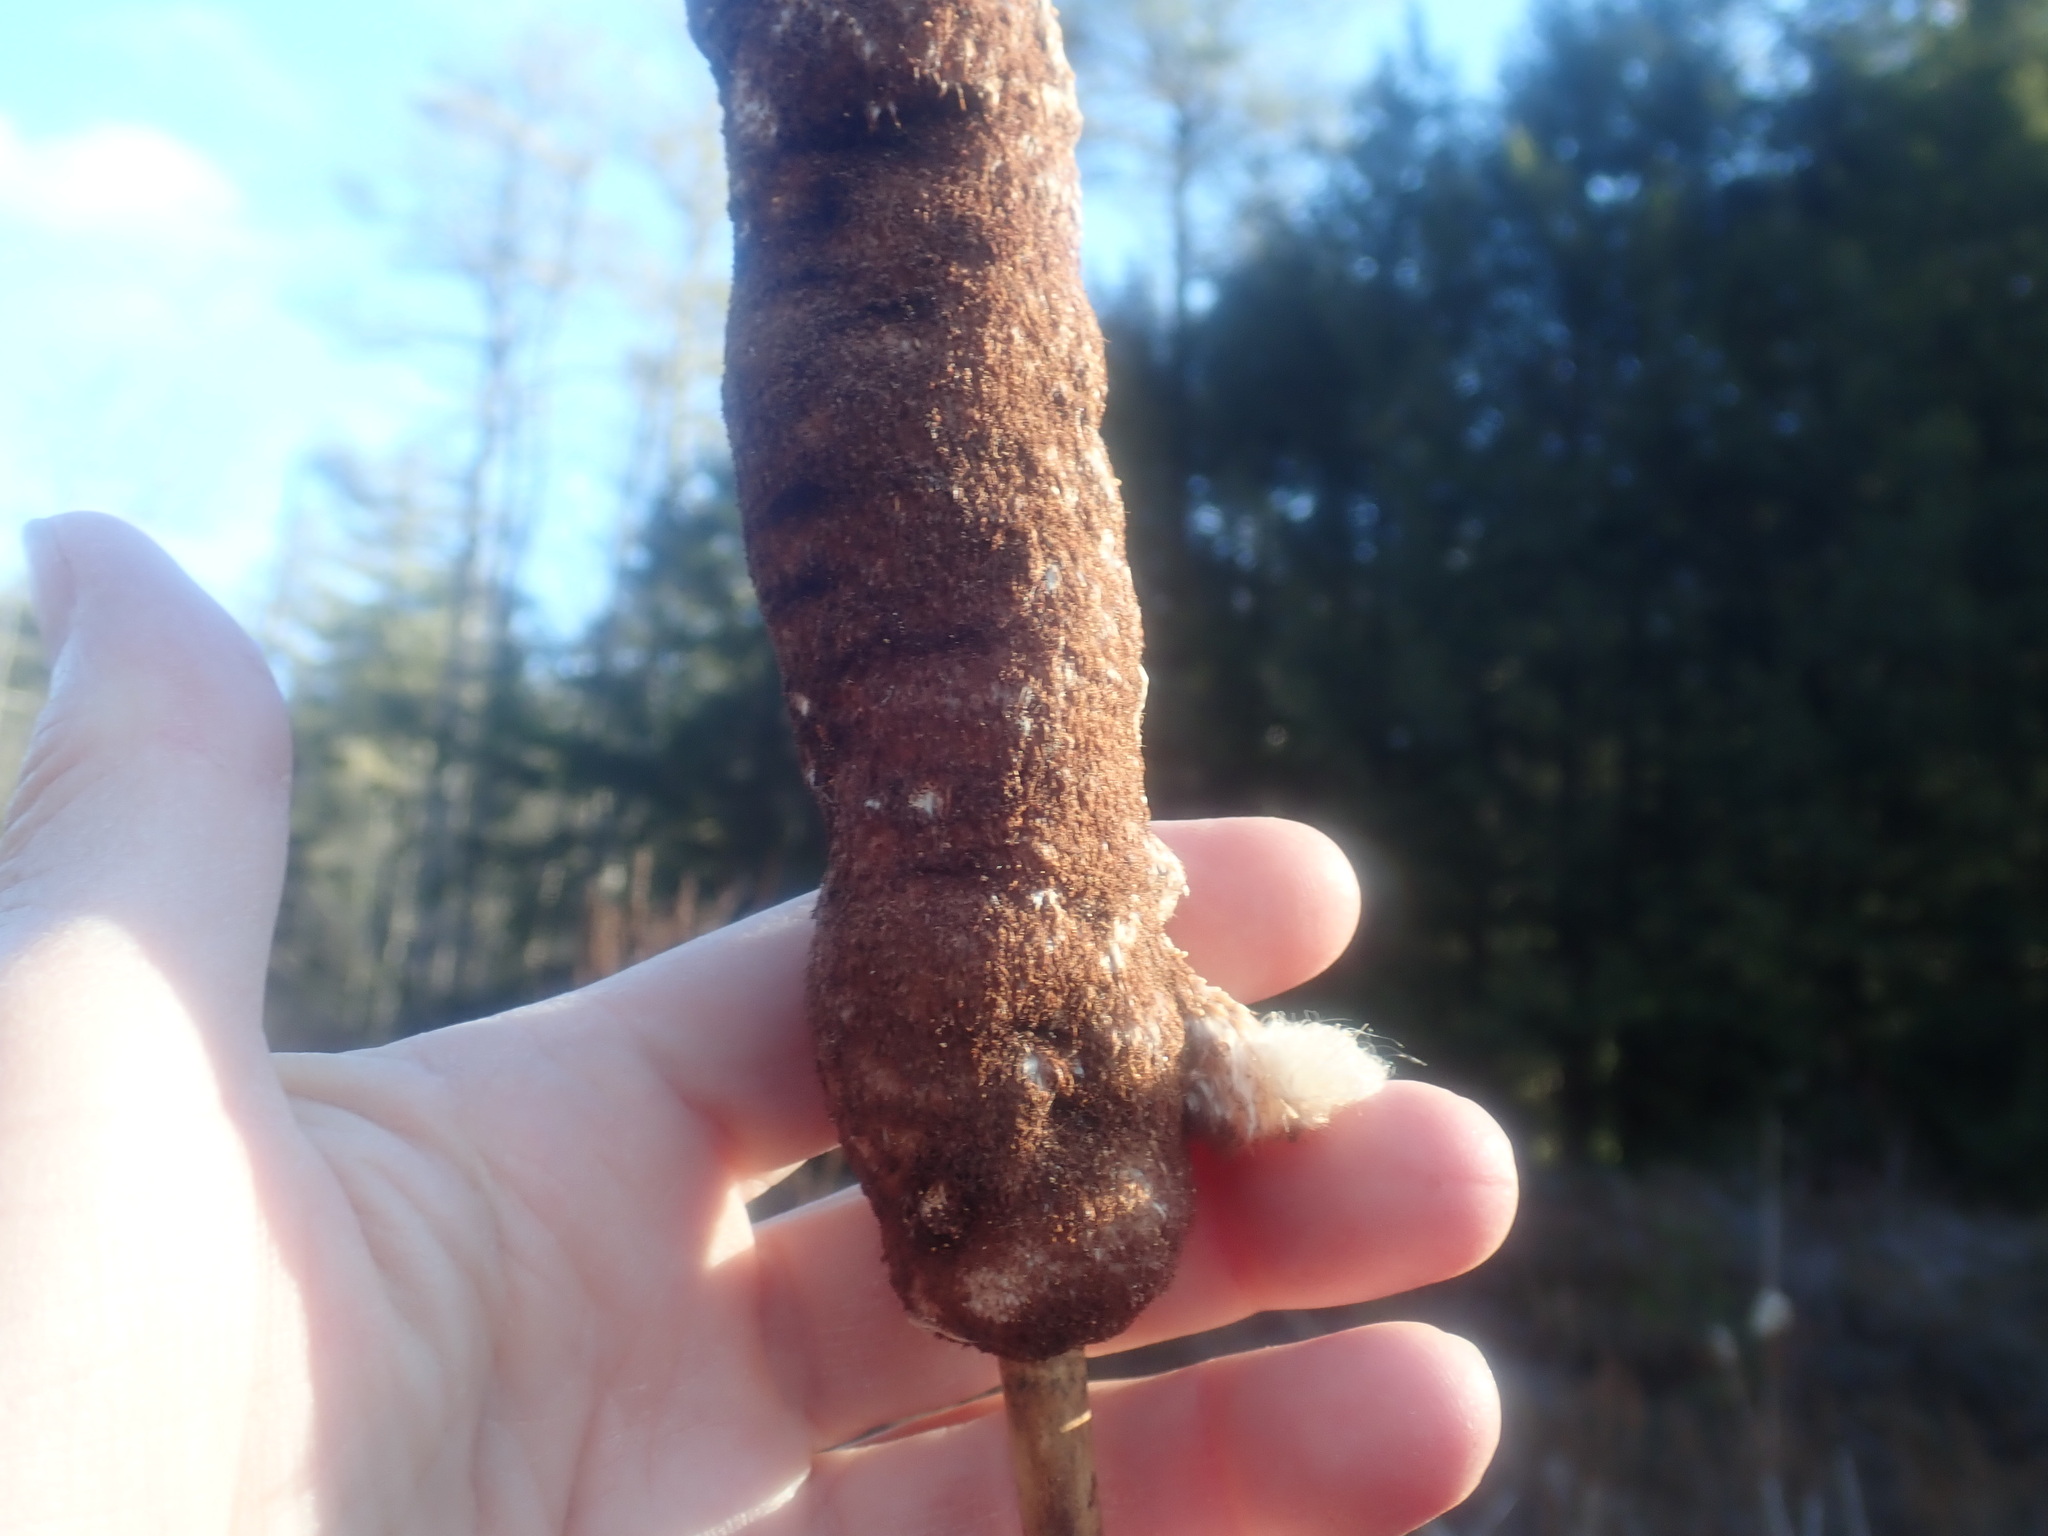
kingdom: Plantae
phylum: Tracheophyta
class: Liliopsida
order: Poales
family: Typhaceae
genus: Typha
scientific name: Typha
